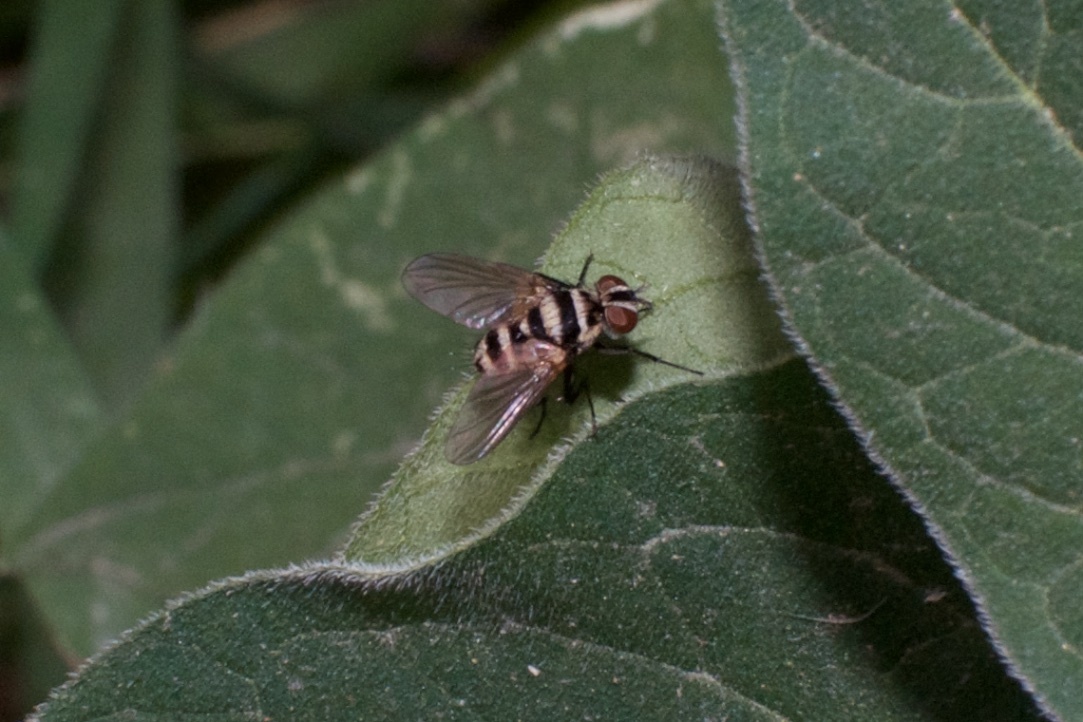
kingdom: Animalia
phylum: Arthropoda
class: Insecta
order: Diptera
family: Tachinidae
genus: Trigonospila
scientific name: Trigonospila brevifacies
